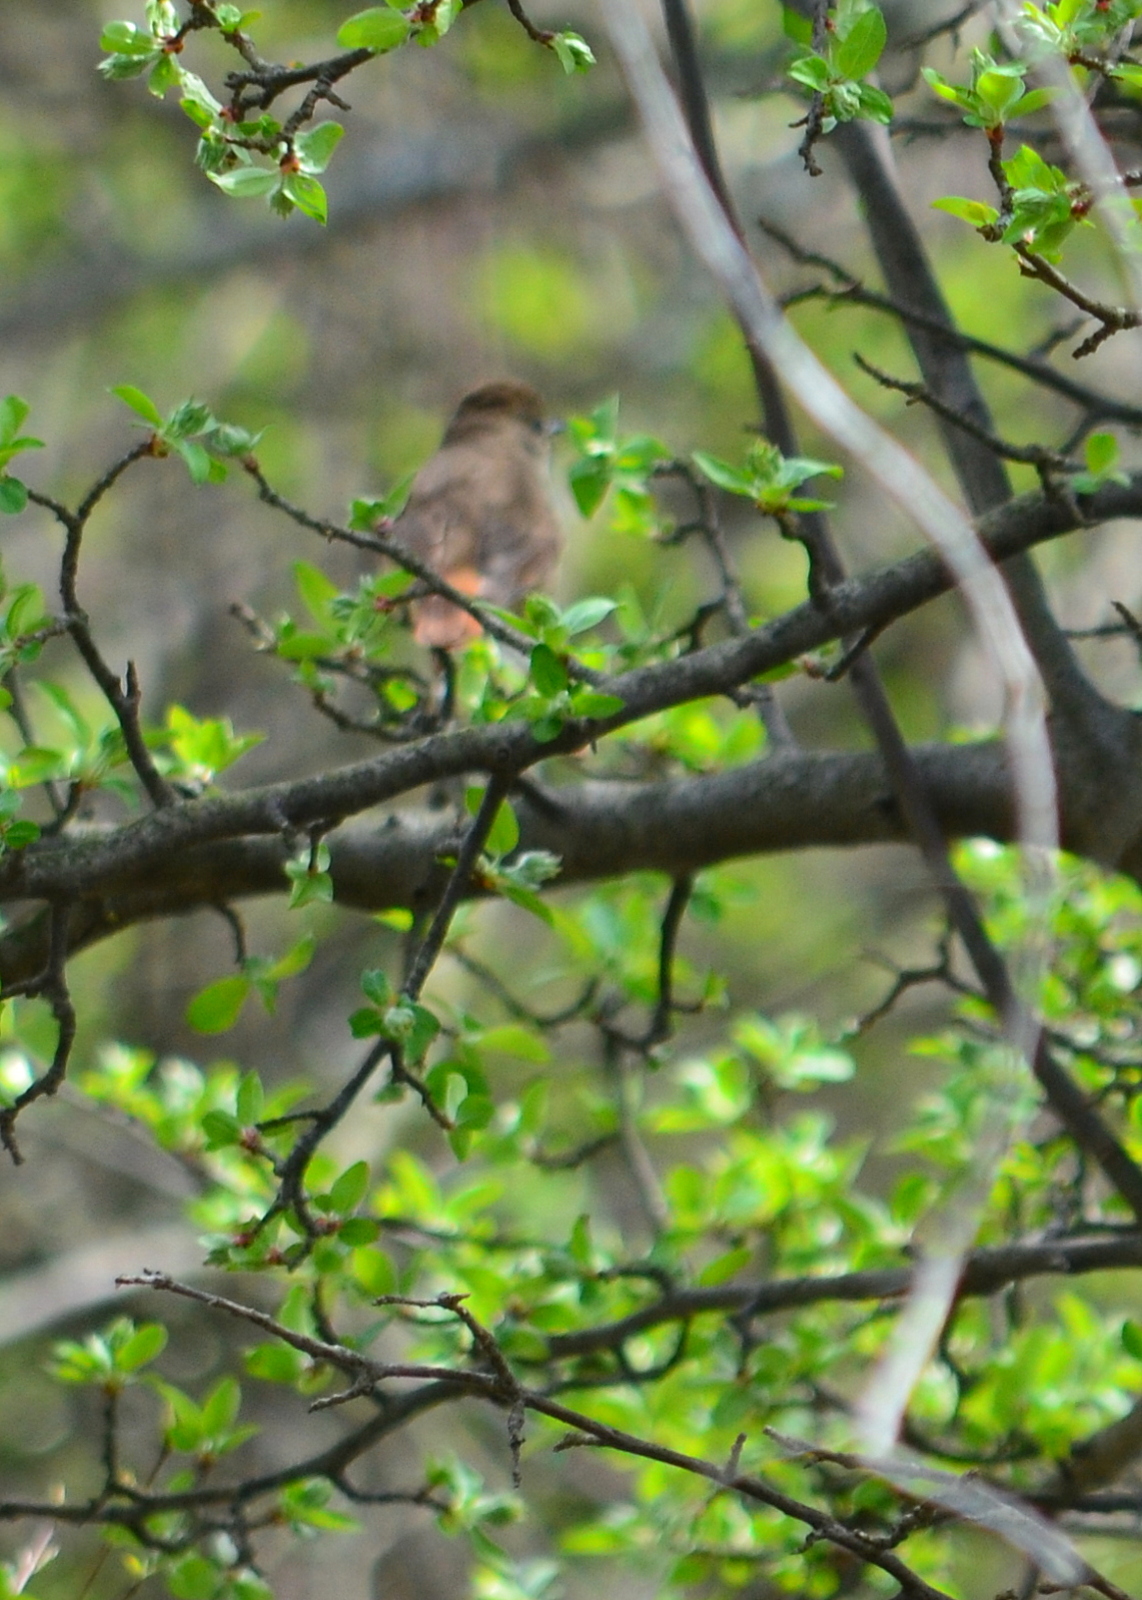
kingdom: Animalia
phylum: Chordata
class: Aves
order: Passeriformes
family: Turdidae
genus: Catharus
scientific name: Catharus guttatus
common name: Hermit thrush
